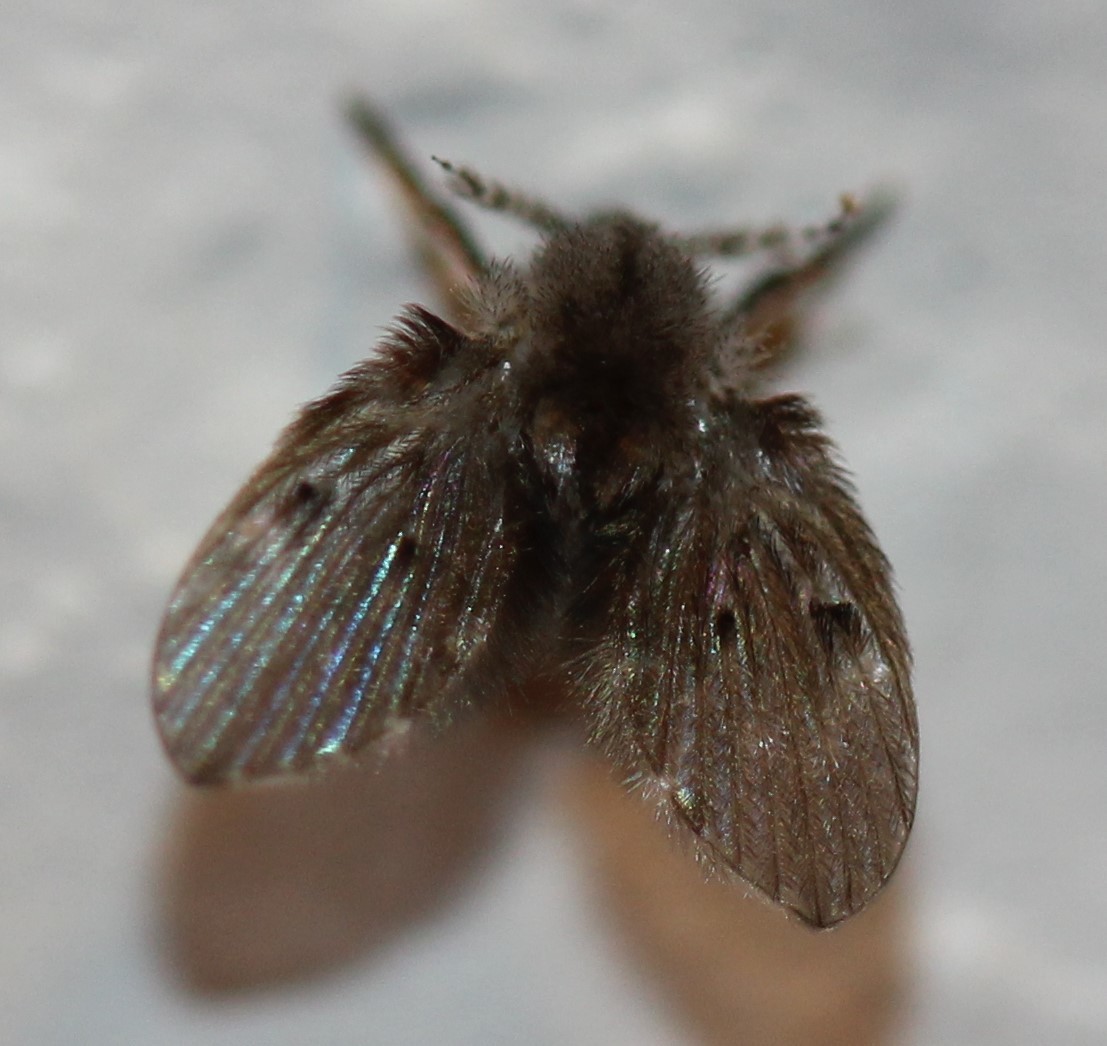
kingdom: Animalia
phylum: Arthropoda
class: Insecta
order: Diptera
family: Psychodidae
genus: Clogmia
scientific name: Clogmia albipunctatus
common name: White-spotted moth fly
